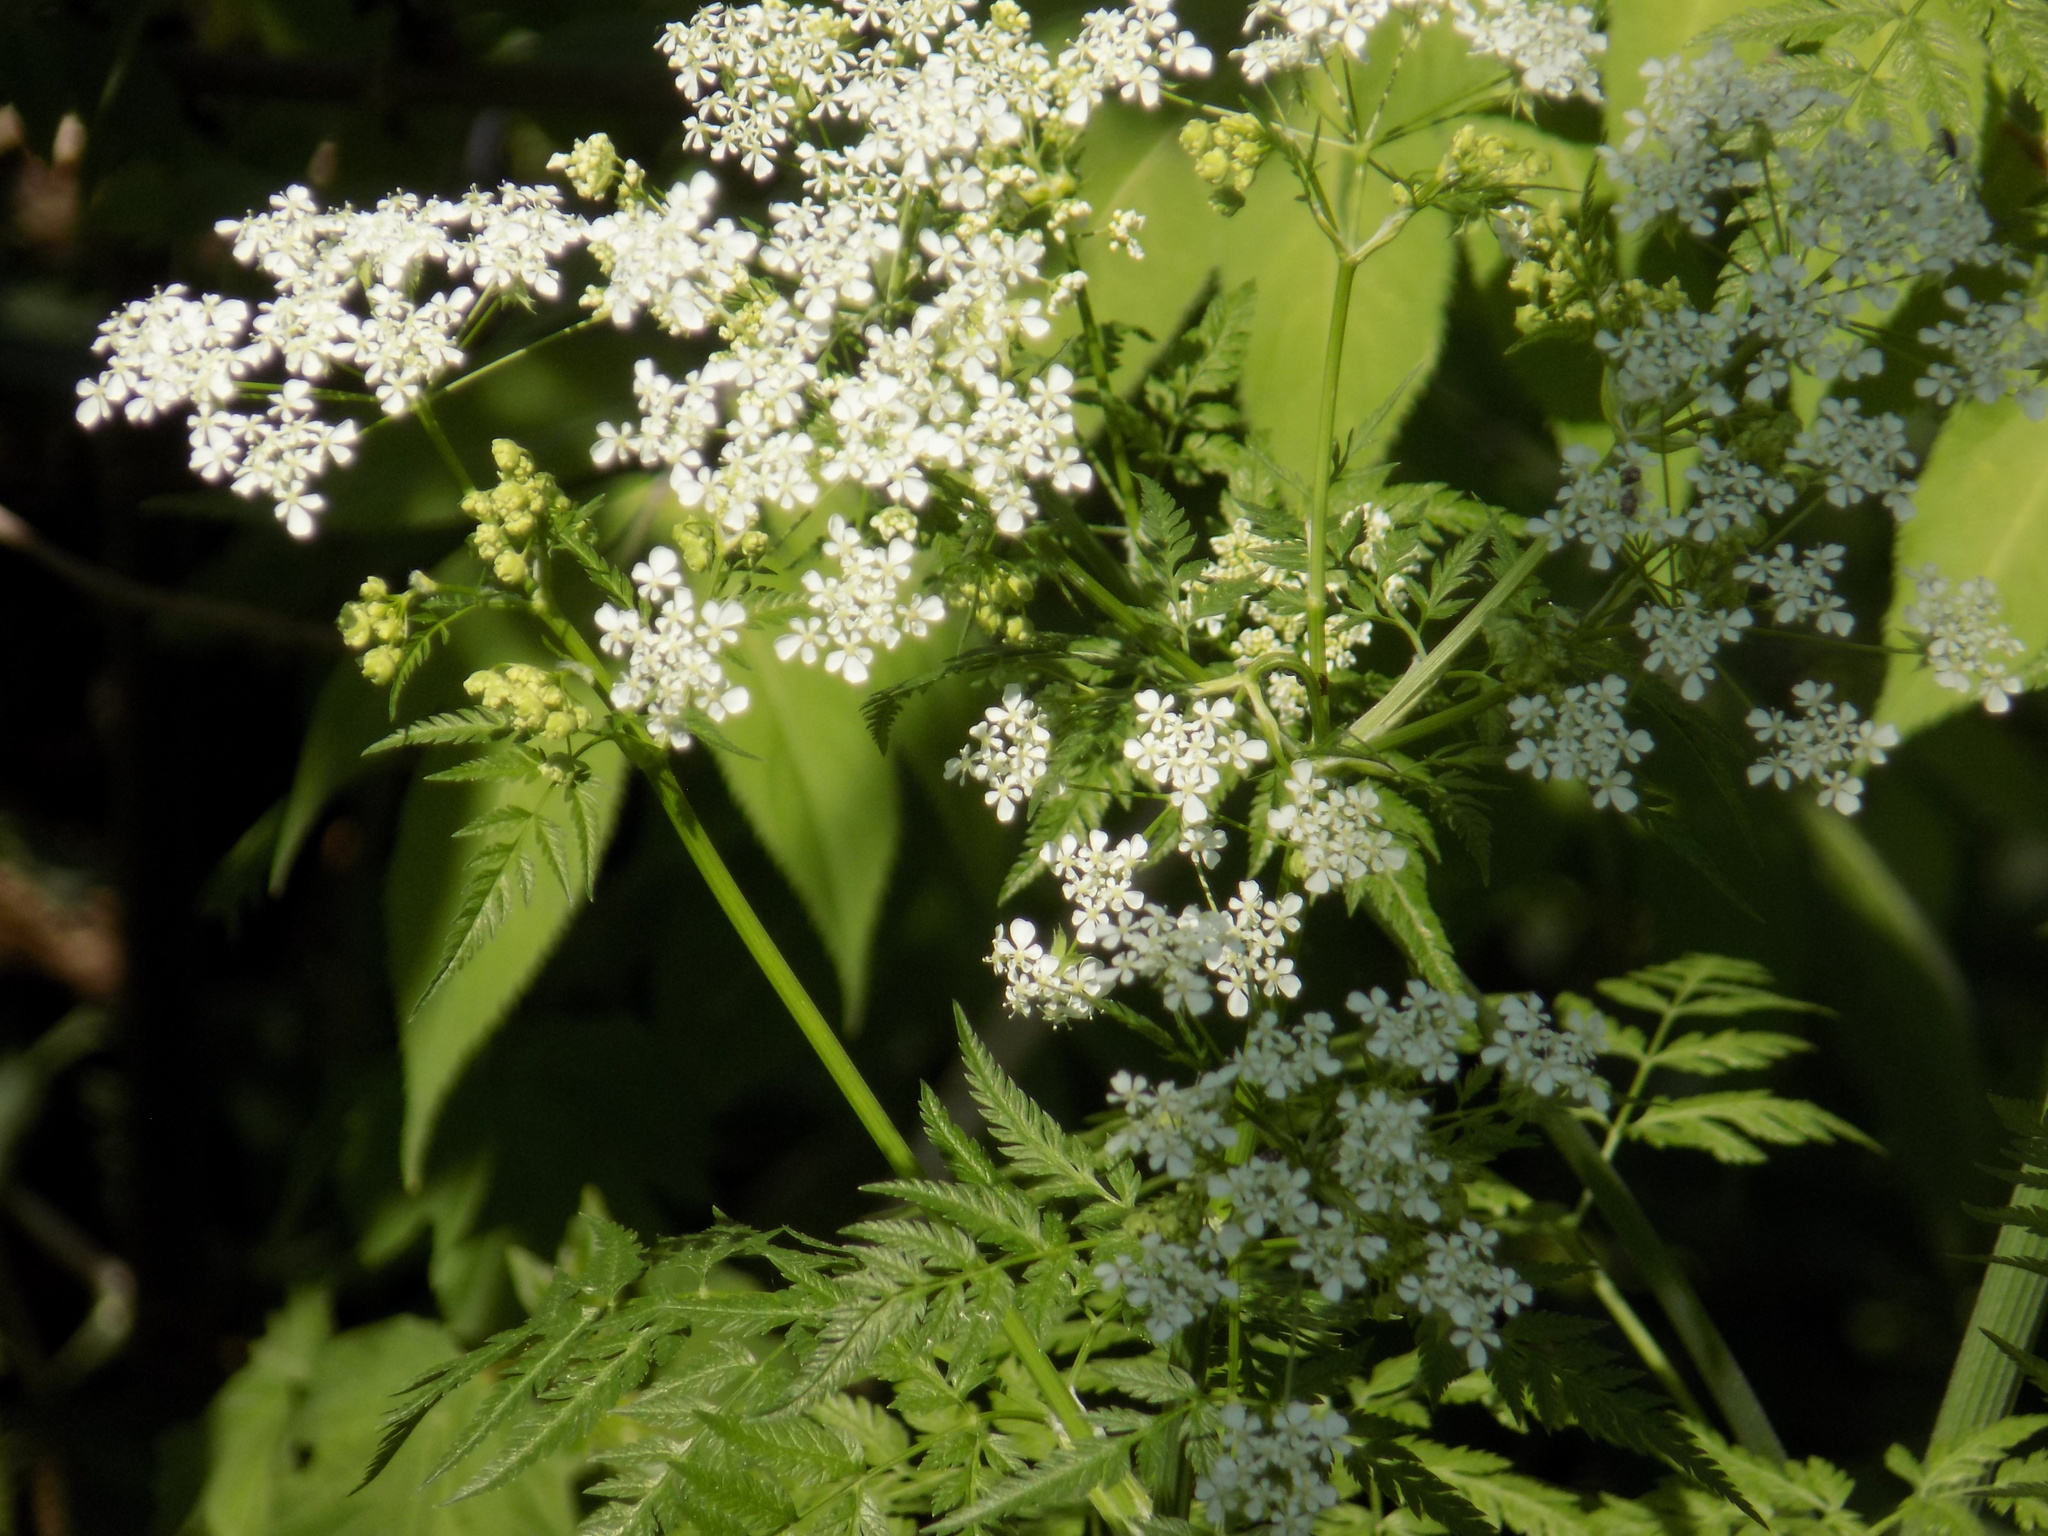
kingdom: Plantae
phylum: Tracheophyta
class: Magnoliopsida
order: Apiales
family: Apiaceae
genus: Anthriscus
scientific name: Anthriscus sylvestris
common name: Cow parsley
